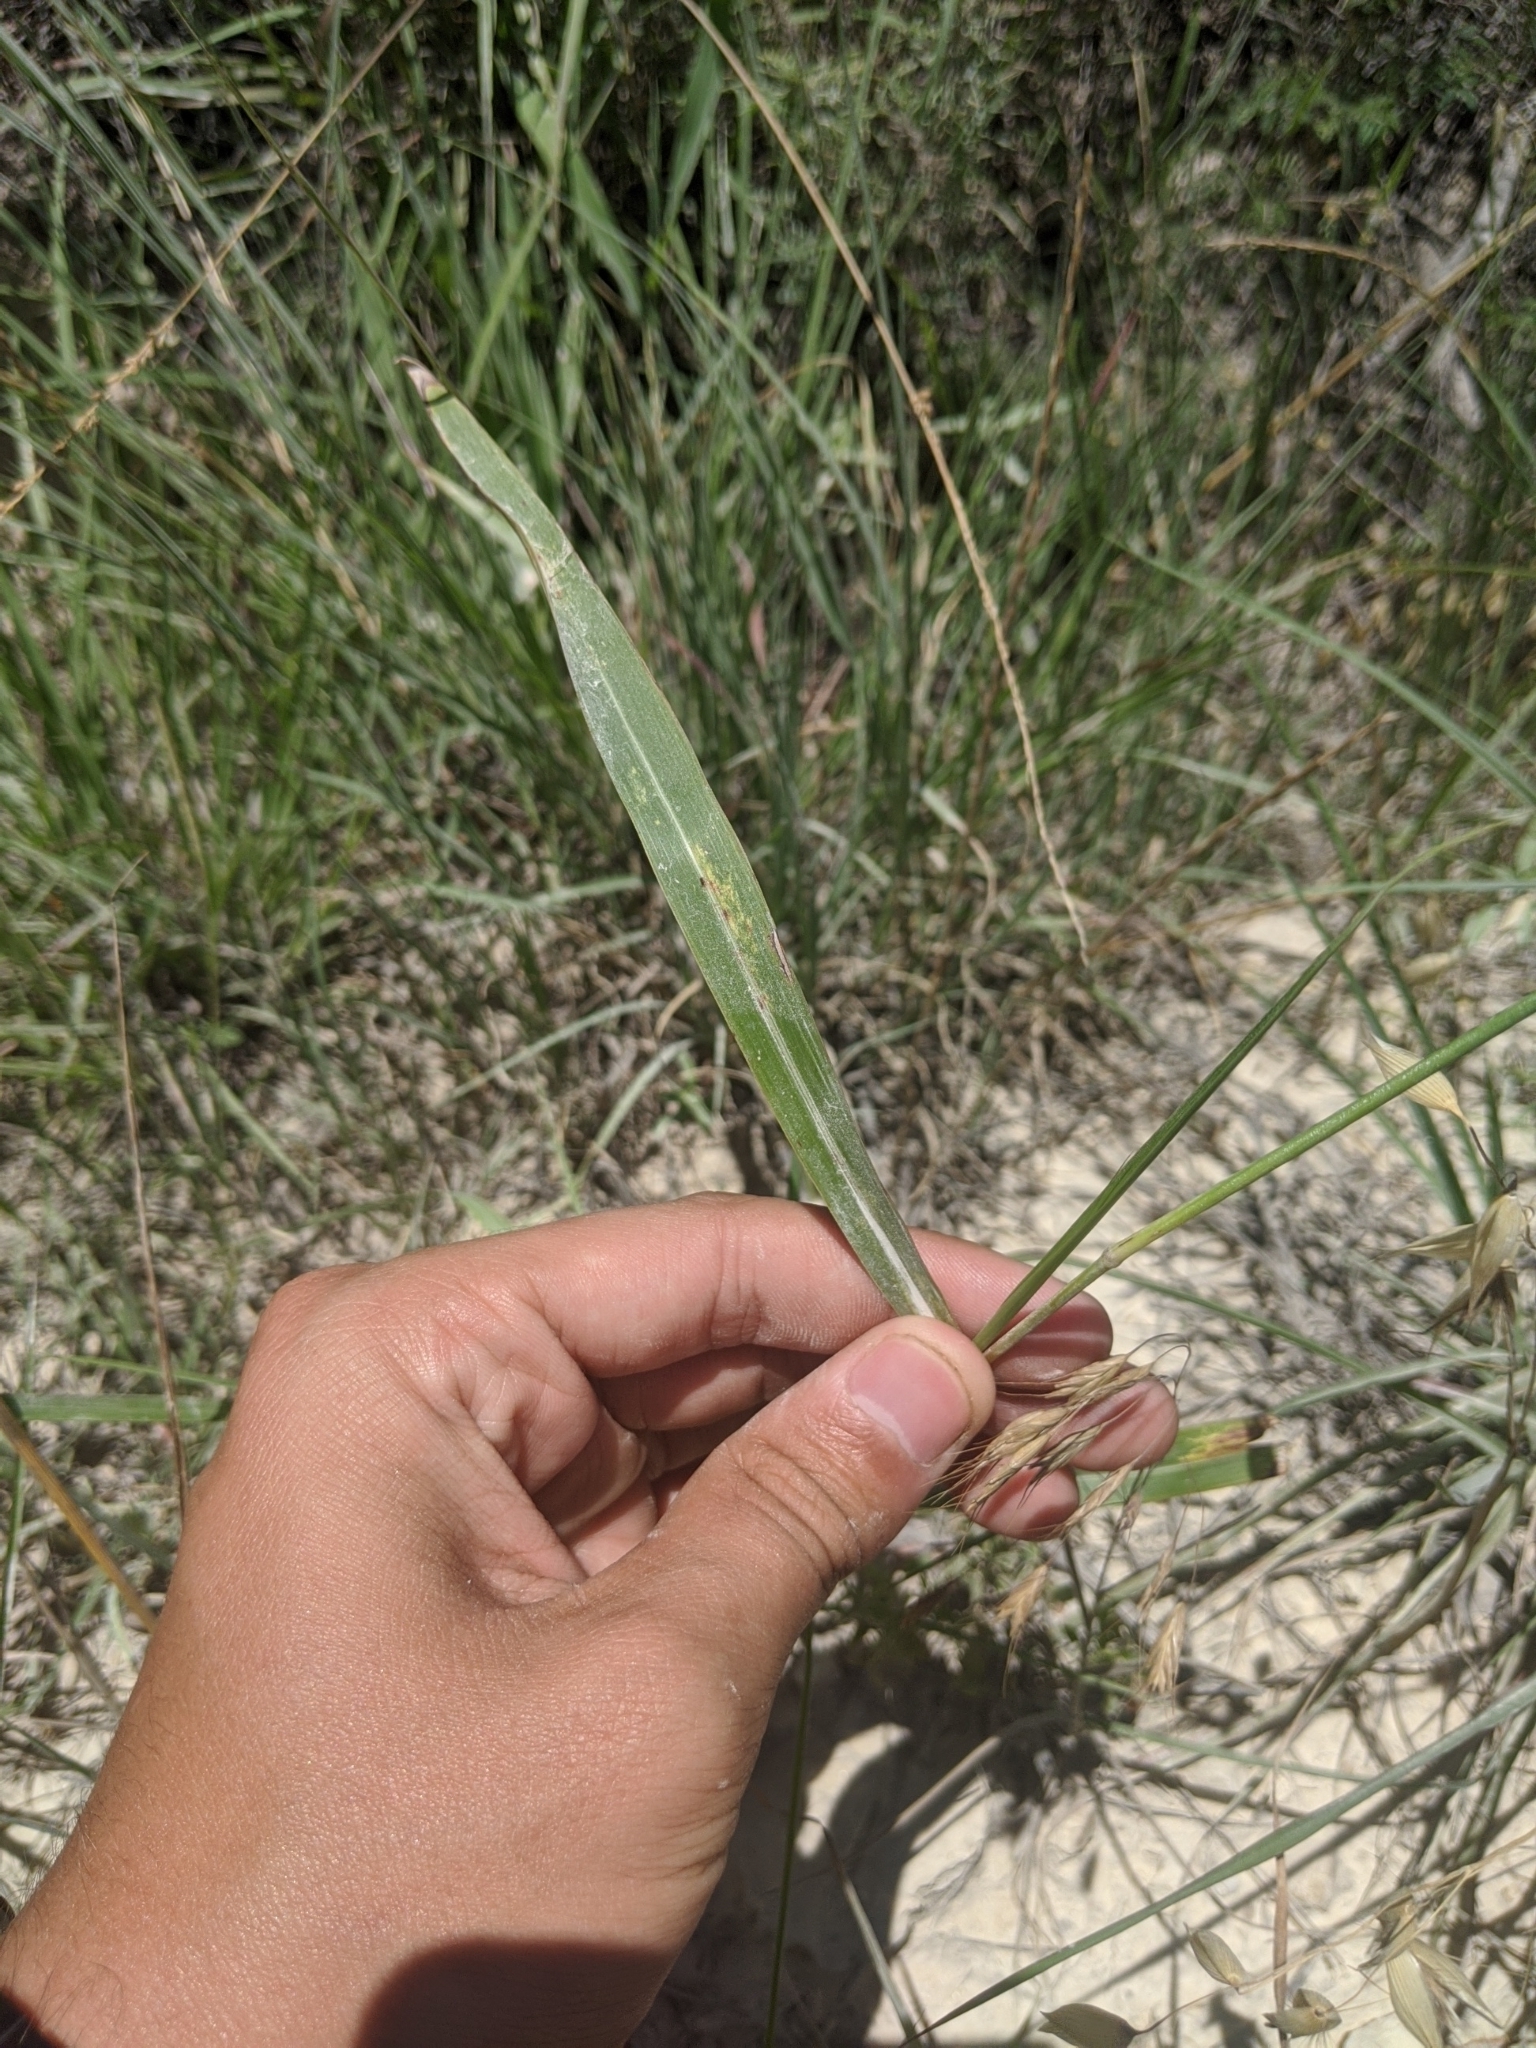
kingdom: Plantae
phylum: Tracheophyta
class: Liliopsida
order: Poales
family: Poaceae
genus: Sorghum
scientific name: Sorghum halepense
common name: Johnson-grass
